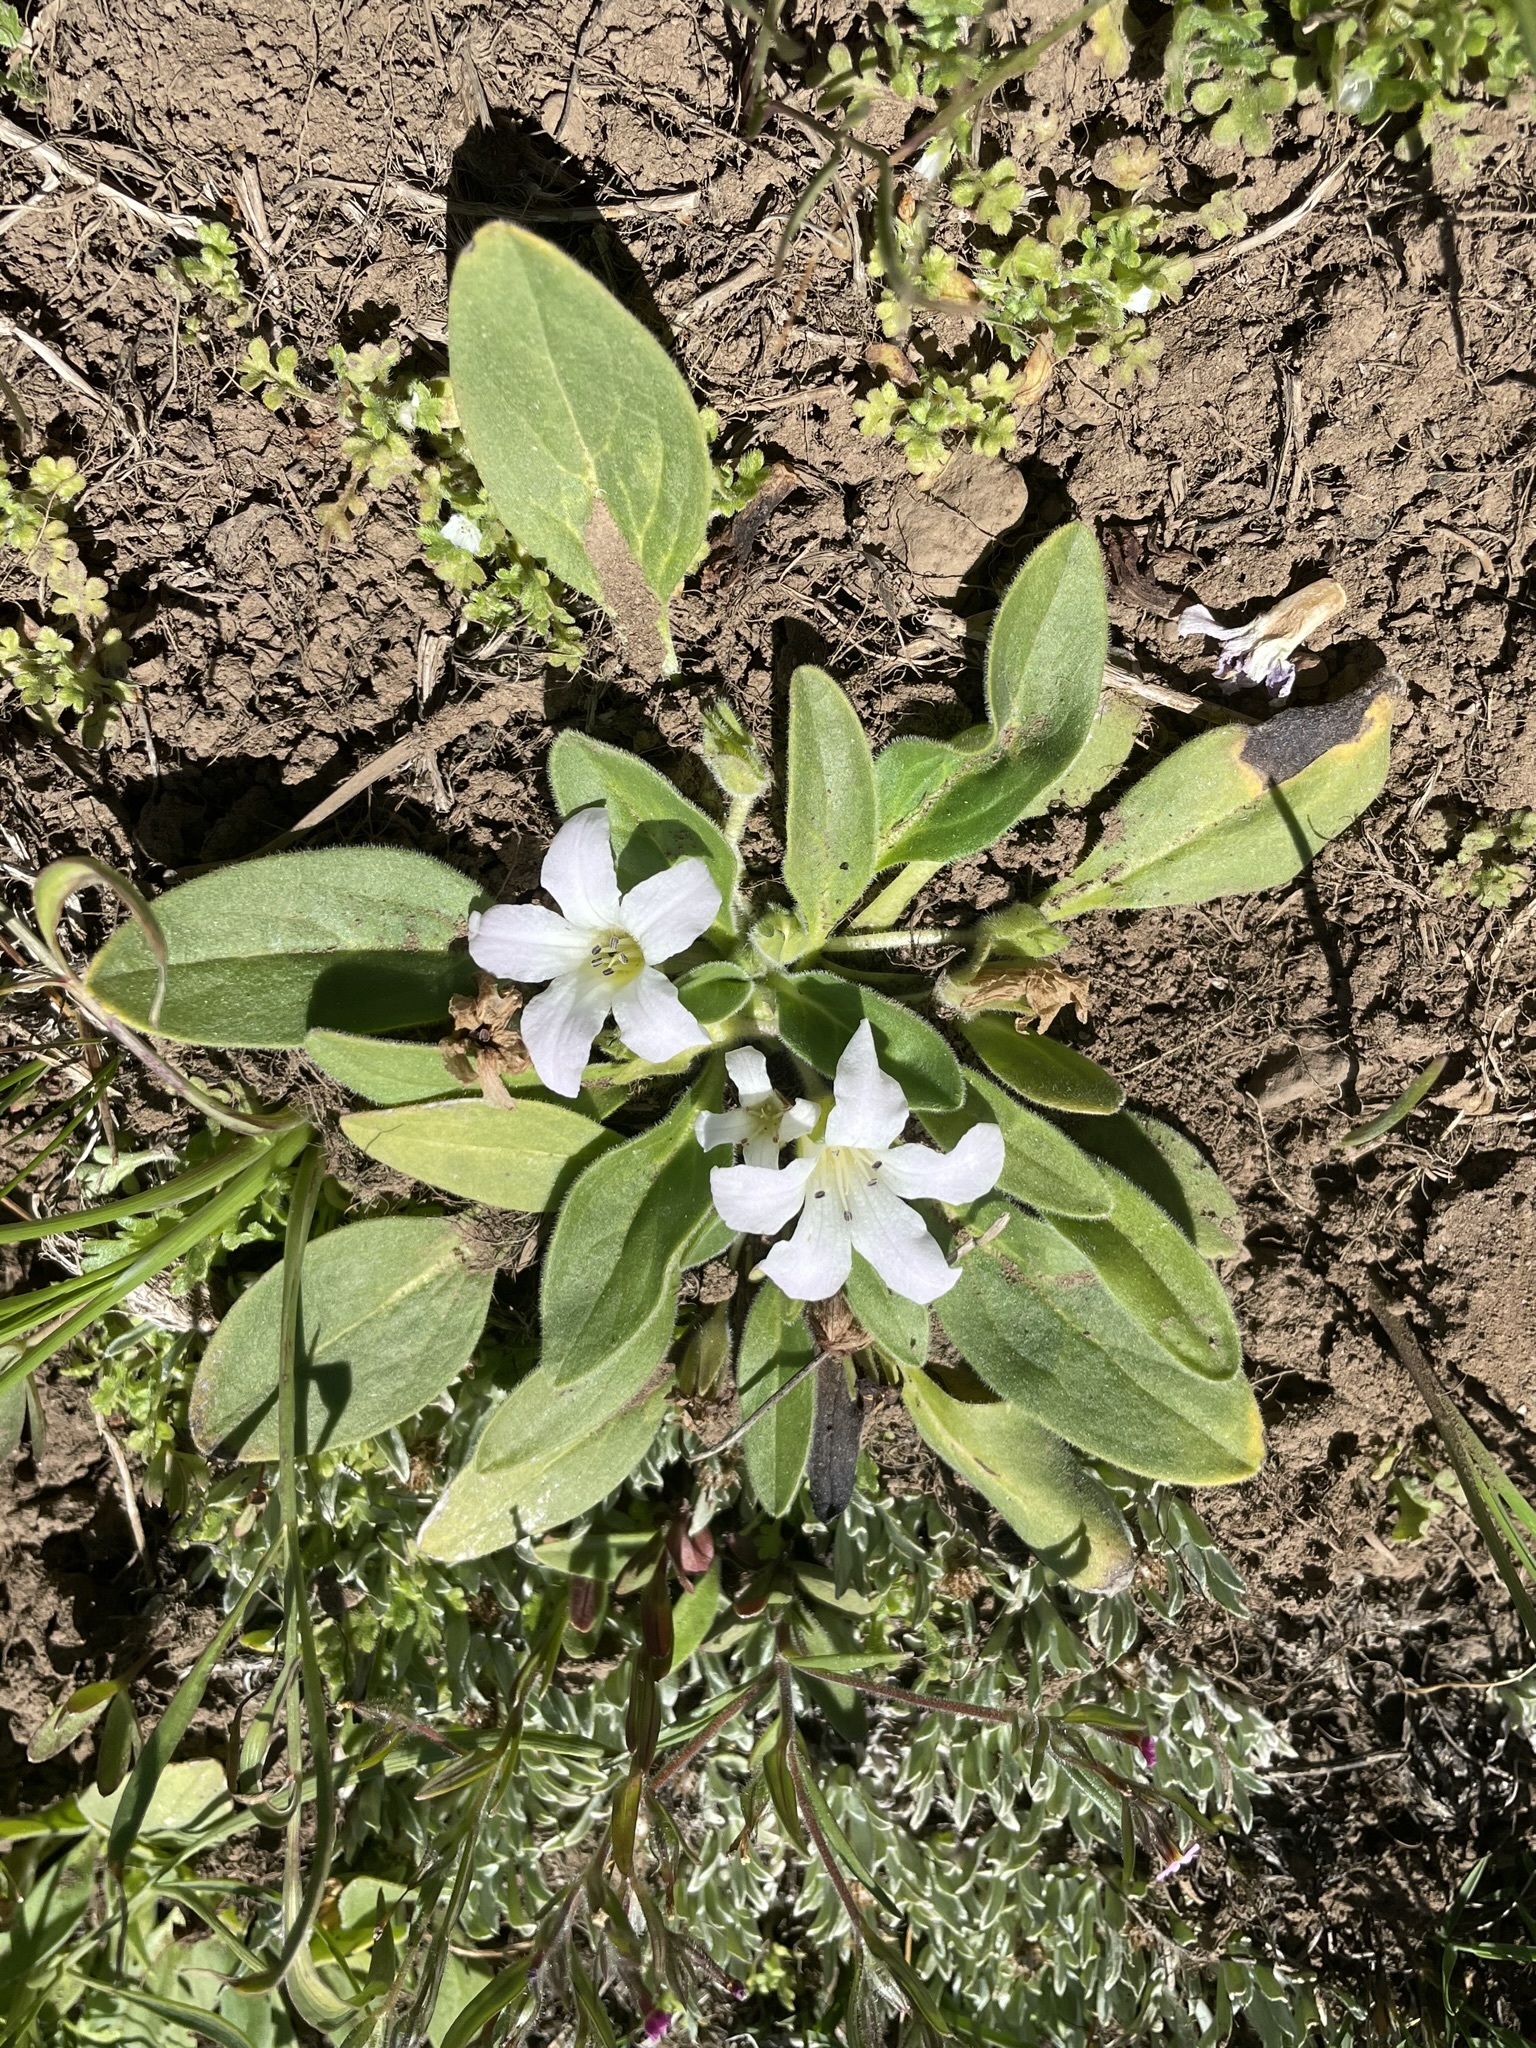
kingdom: Plantae
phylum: Tracheophyta
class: Magnoliopsida
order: Boraginales
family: Hydrophyllaceae
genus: Hesperochiron
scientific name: Hesperochiron californicus
